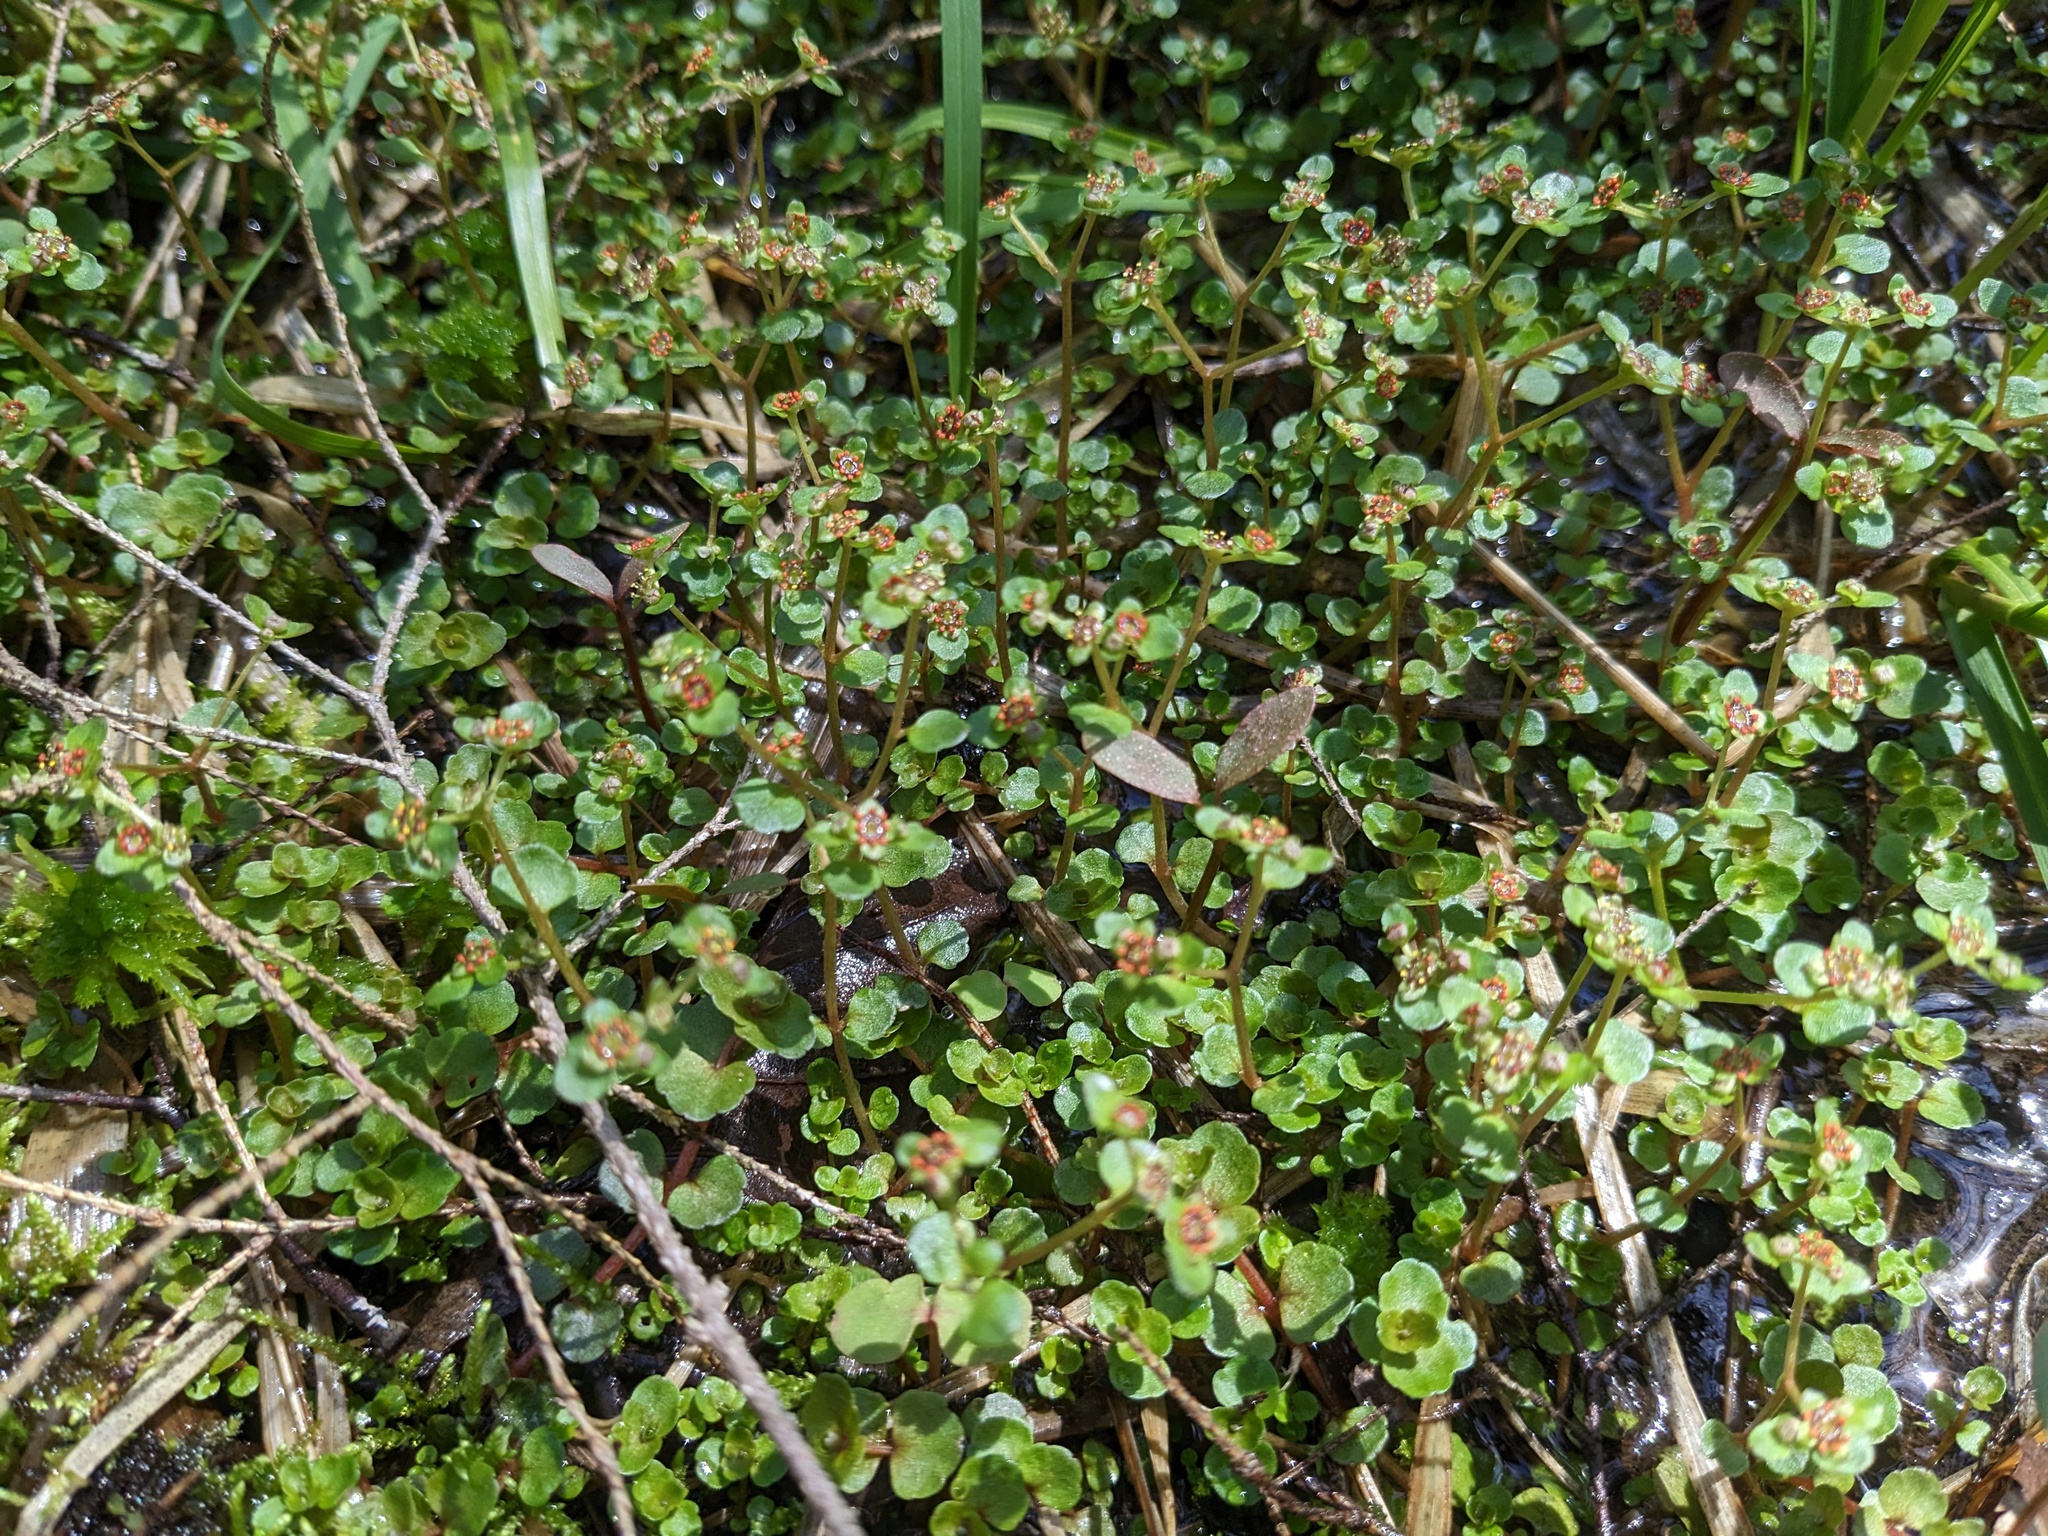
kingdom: Plantae
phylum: Tracheophyta
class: Magnoliopsida
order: Saxifragales
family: Saxifragaceae
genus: Chrysosplenium
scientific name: Chrysosplenium americanum
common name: American golden-saxifrage
